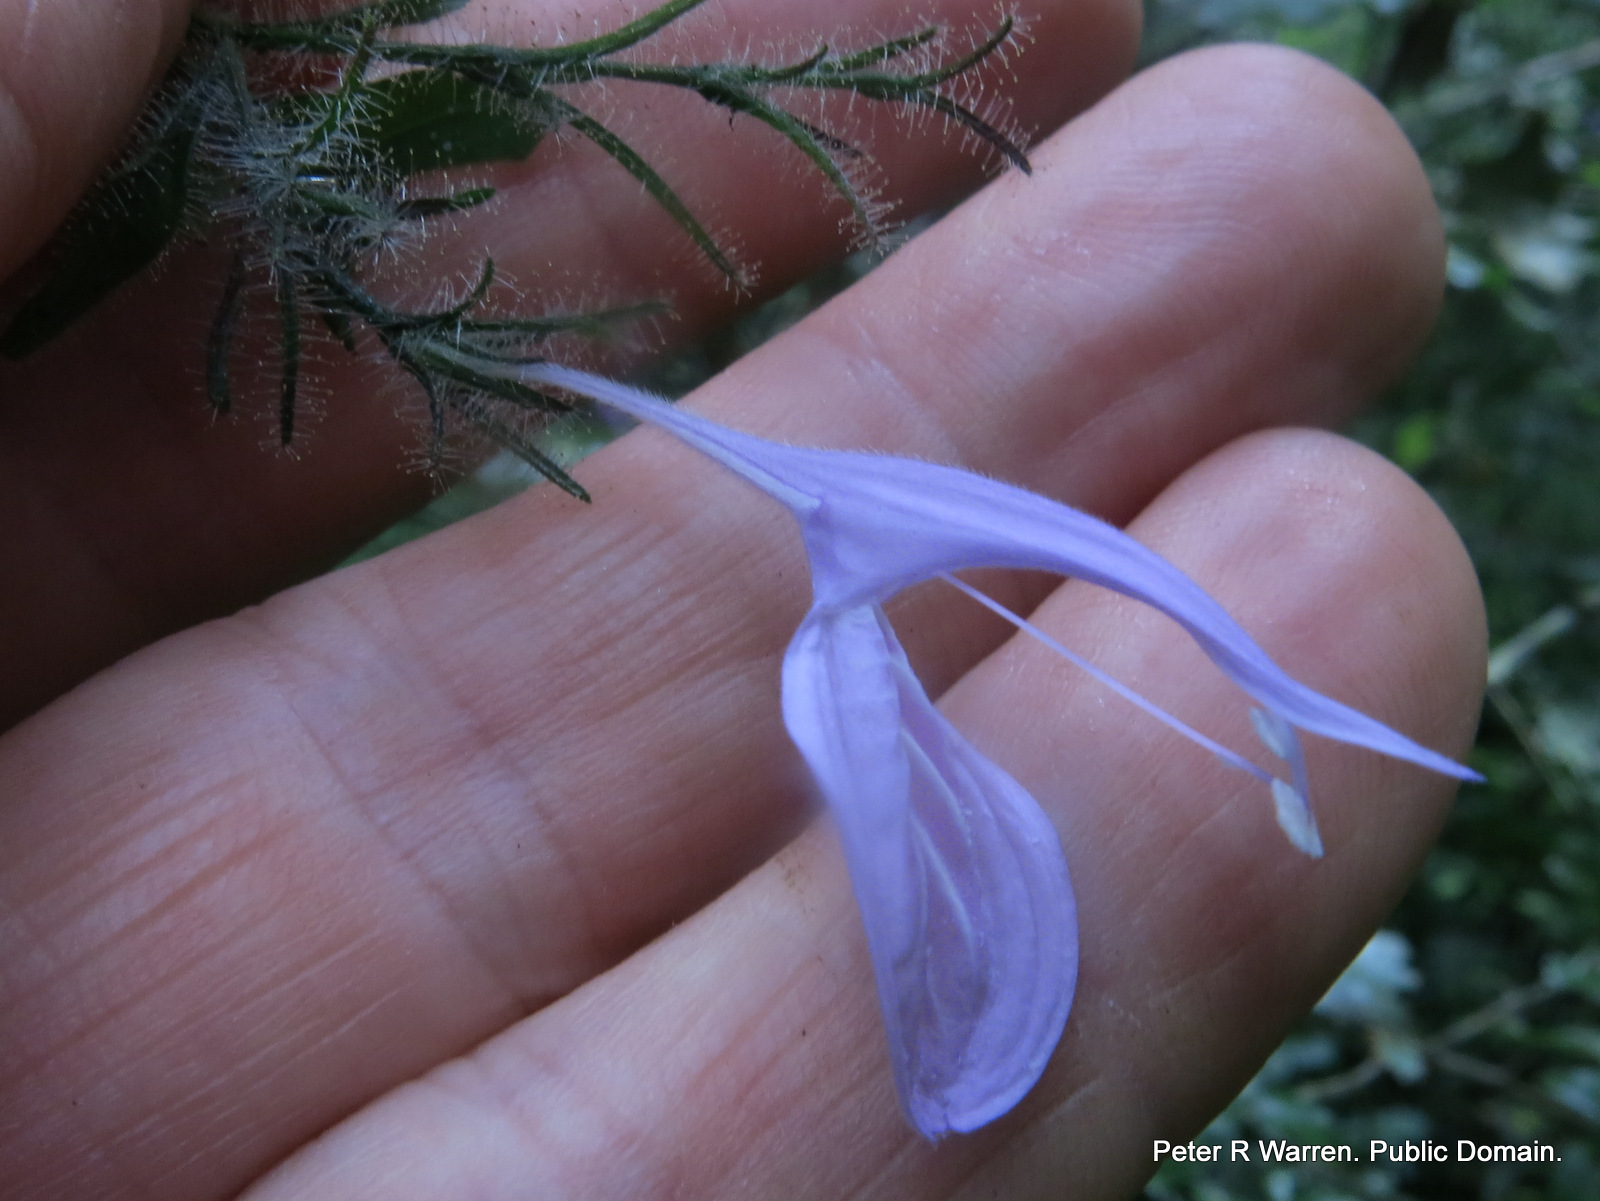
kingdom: Plantae
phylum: Tracheophyta
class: Magnoliopsida
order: Lamiales
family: Acanthaceae
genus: Isoglossa
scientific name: Isoglossa cooperi
